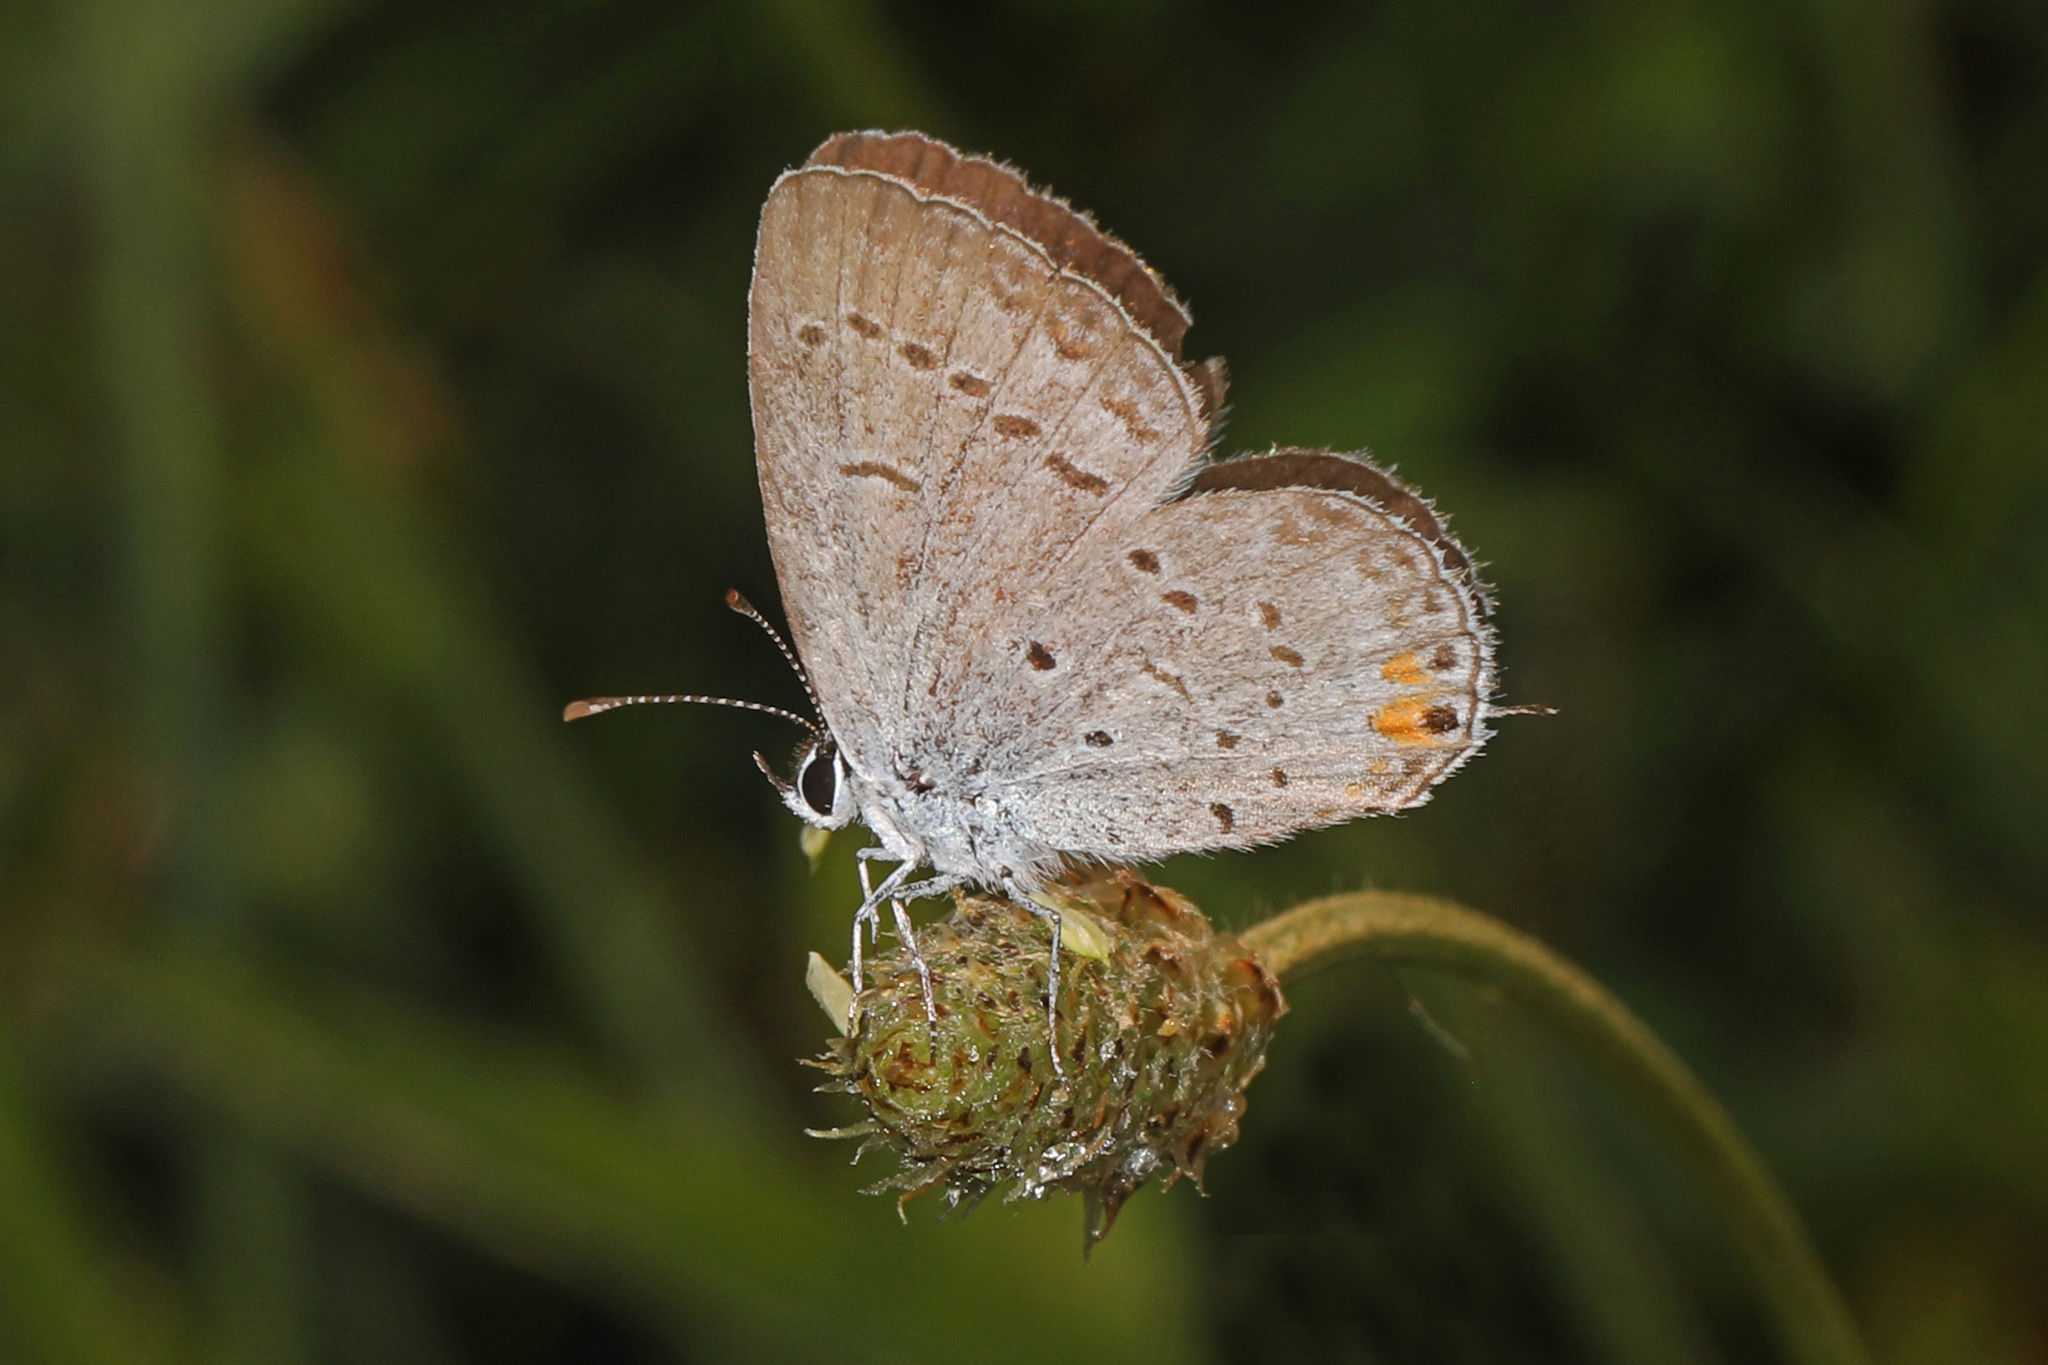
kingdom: Animalia
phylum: Arthropoda
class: Insecta
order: Lepidoptera
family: Lycaenidae
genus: Elkalyce
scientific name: Elkalyce comyntas
